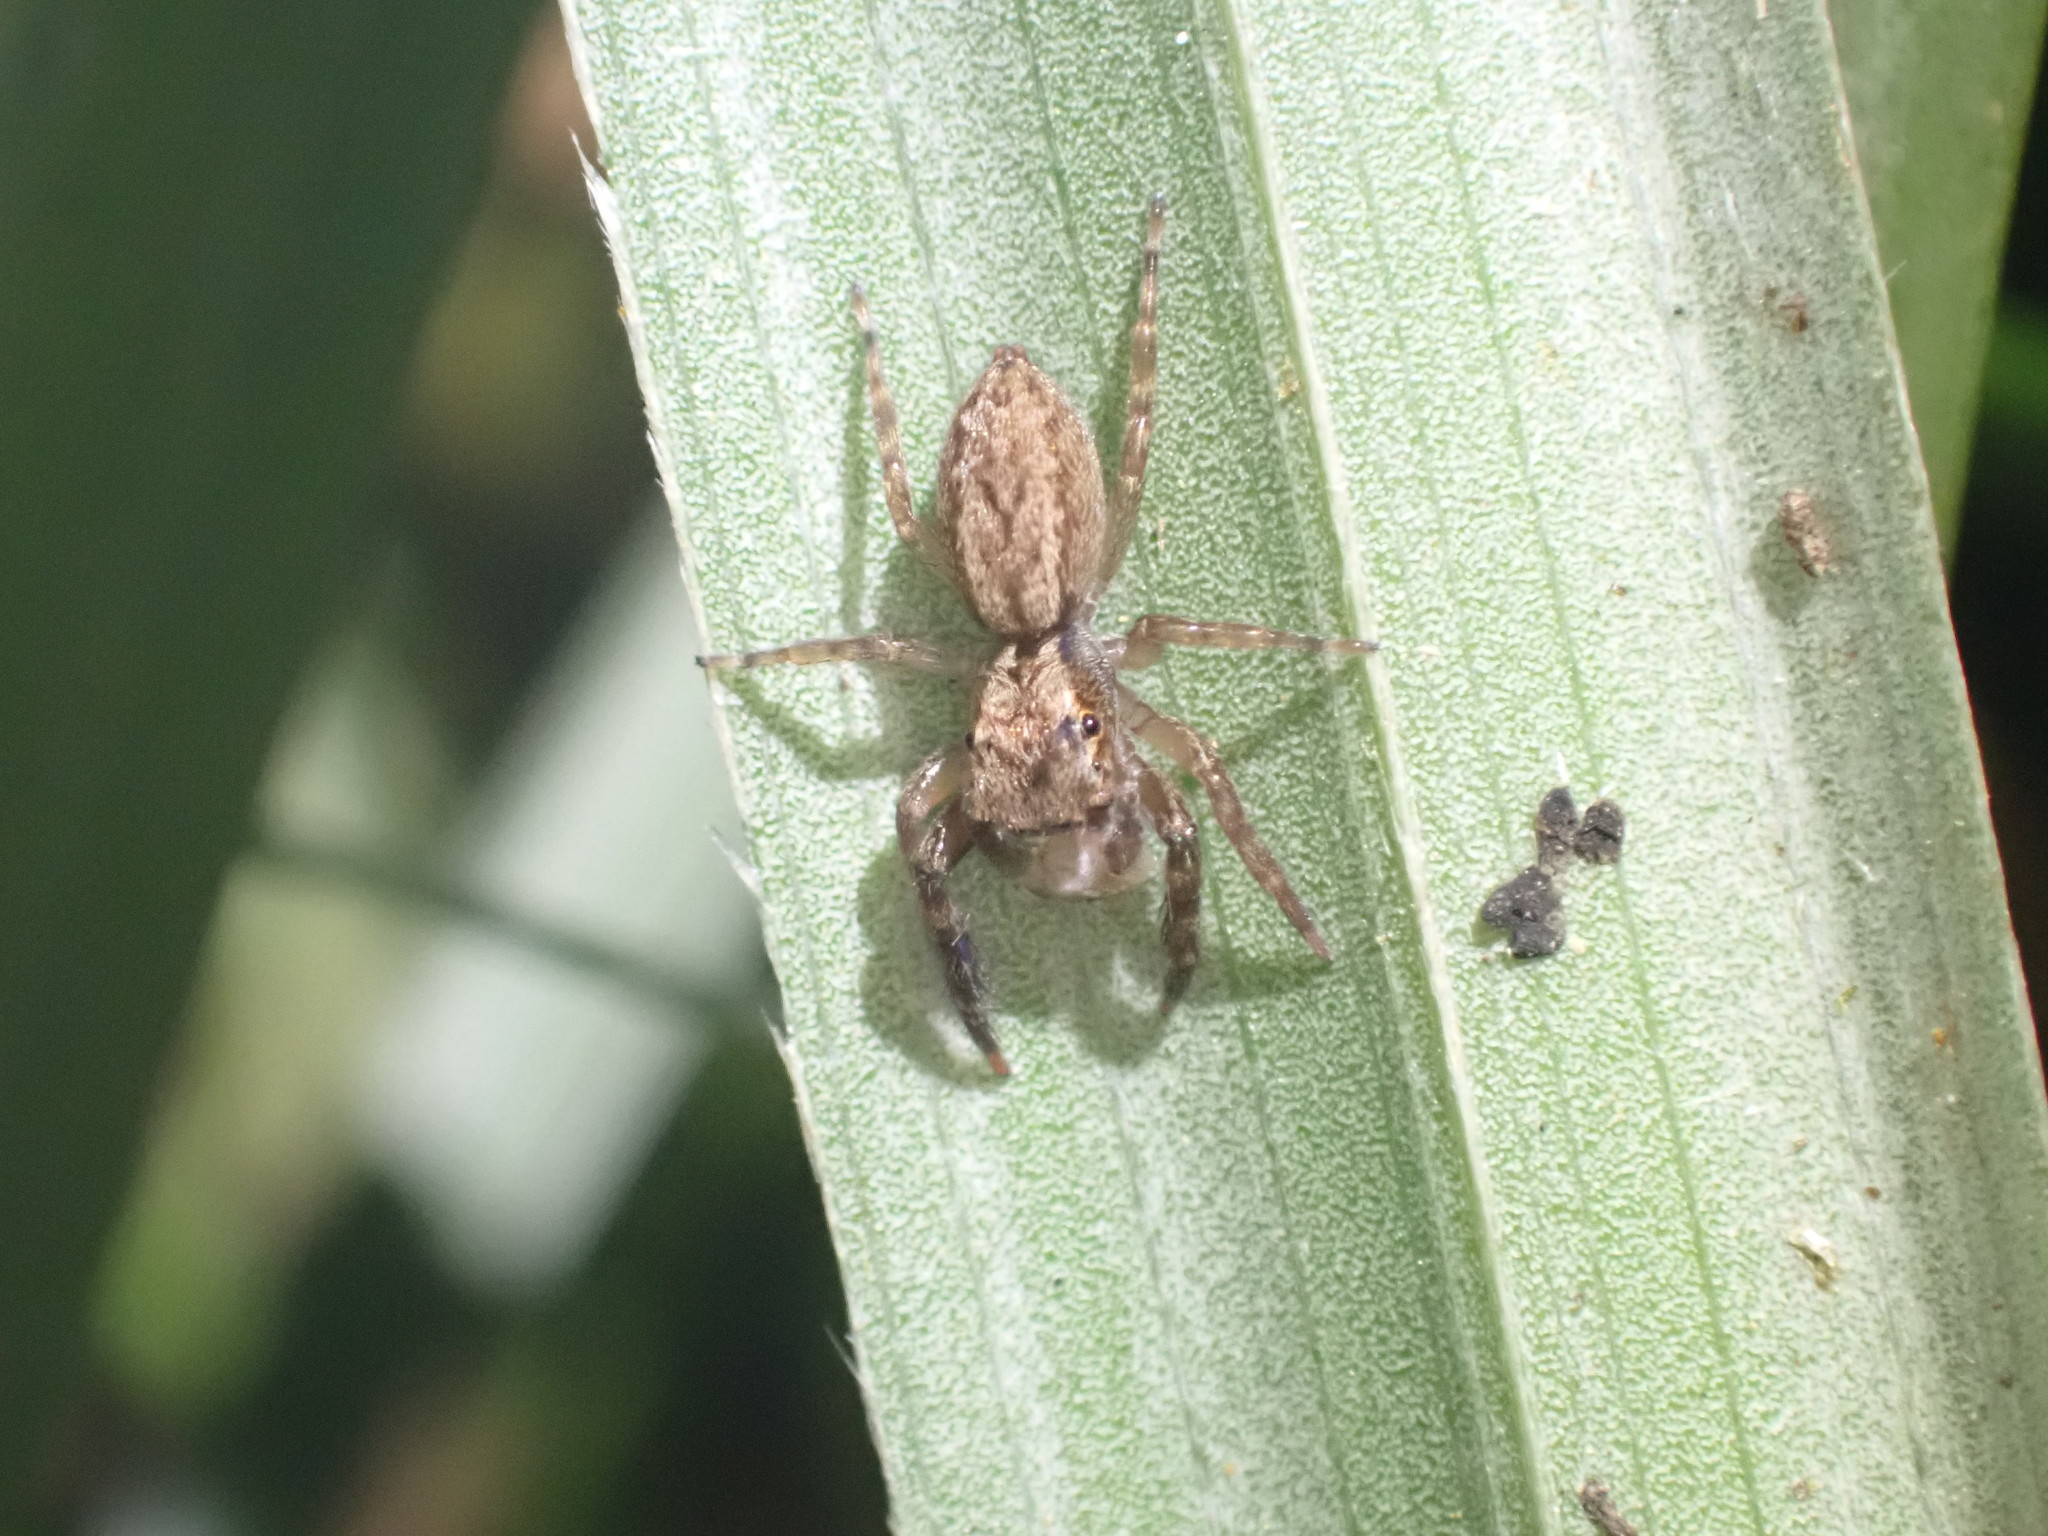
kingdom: Animalia
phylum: Arthropoda
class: Arachnida
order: Araneae
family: Salticidae
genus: Trite
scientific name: Trite auricoma
